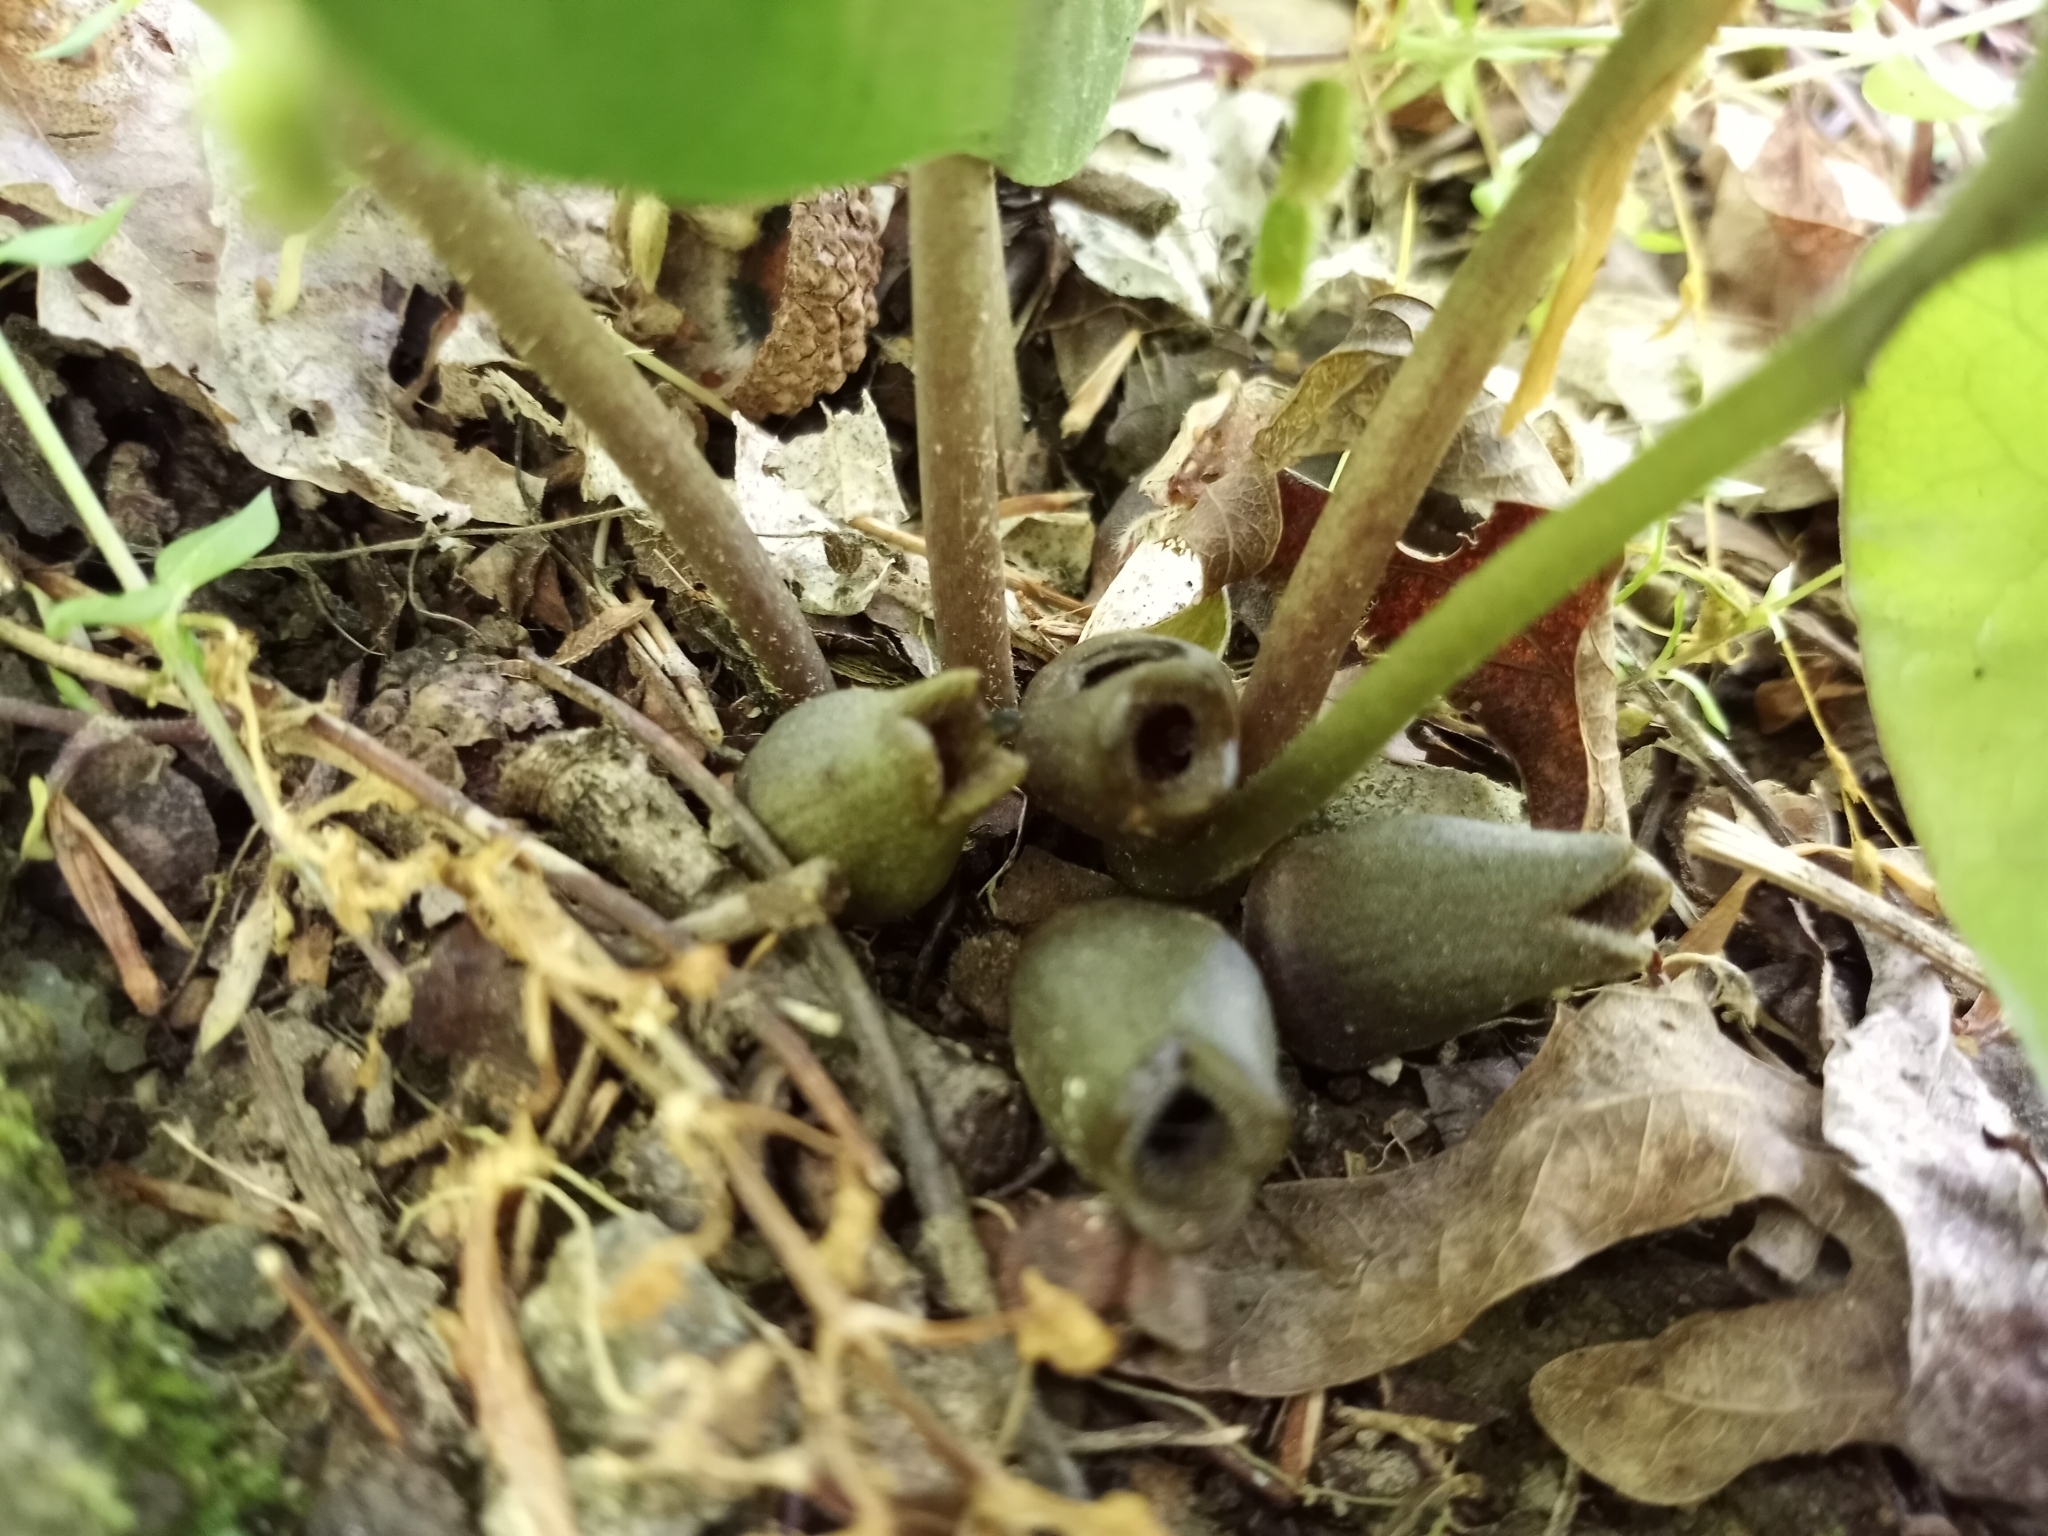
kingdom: Plantae
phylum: Tracheophyta
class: Magnoliopsida
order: Piperales
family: Aristolochiaceae
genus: Hexastylis
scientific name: Hexastylis arifolia
